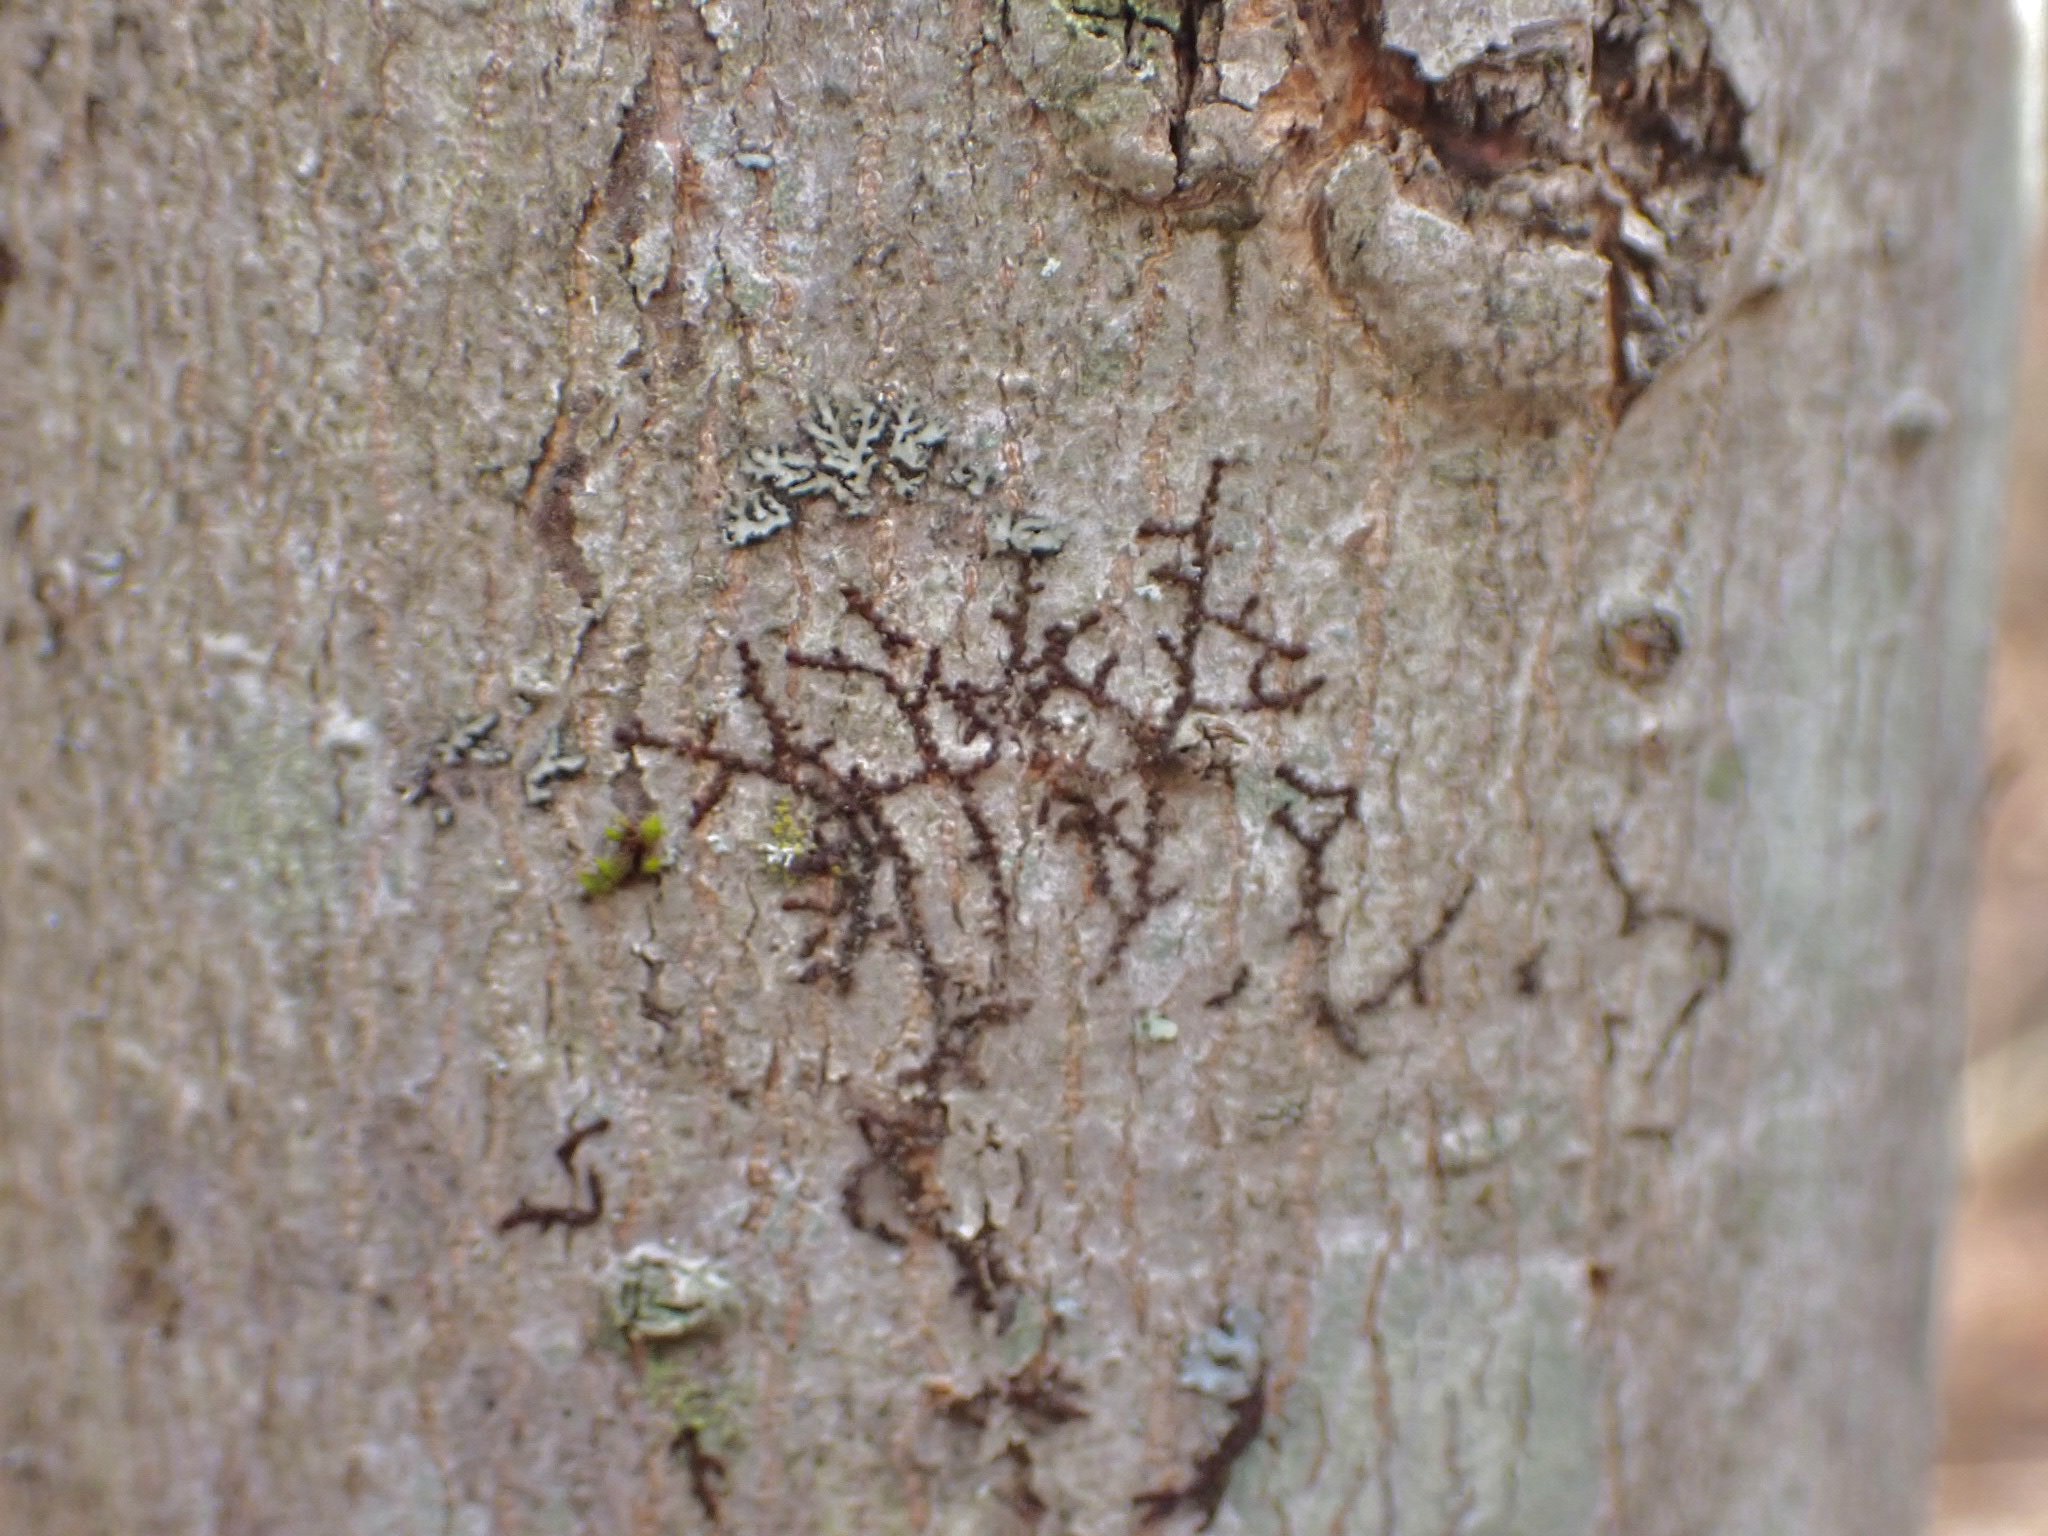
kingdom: Plantae
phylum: Marchantiophyta
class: Jungermanniopsida
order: Porellales
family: Frullaniaceae
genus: Frullania
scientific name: Frullania eboracensis
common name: New york scalewort
